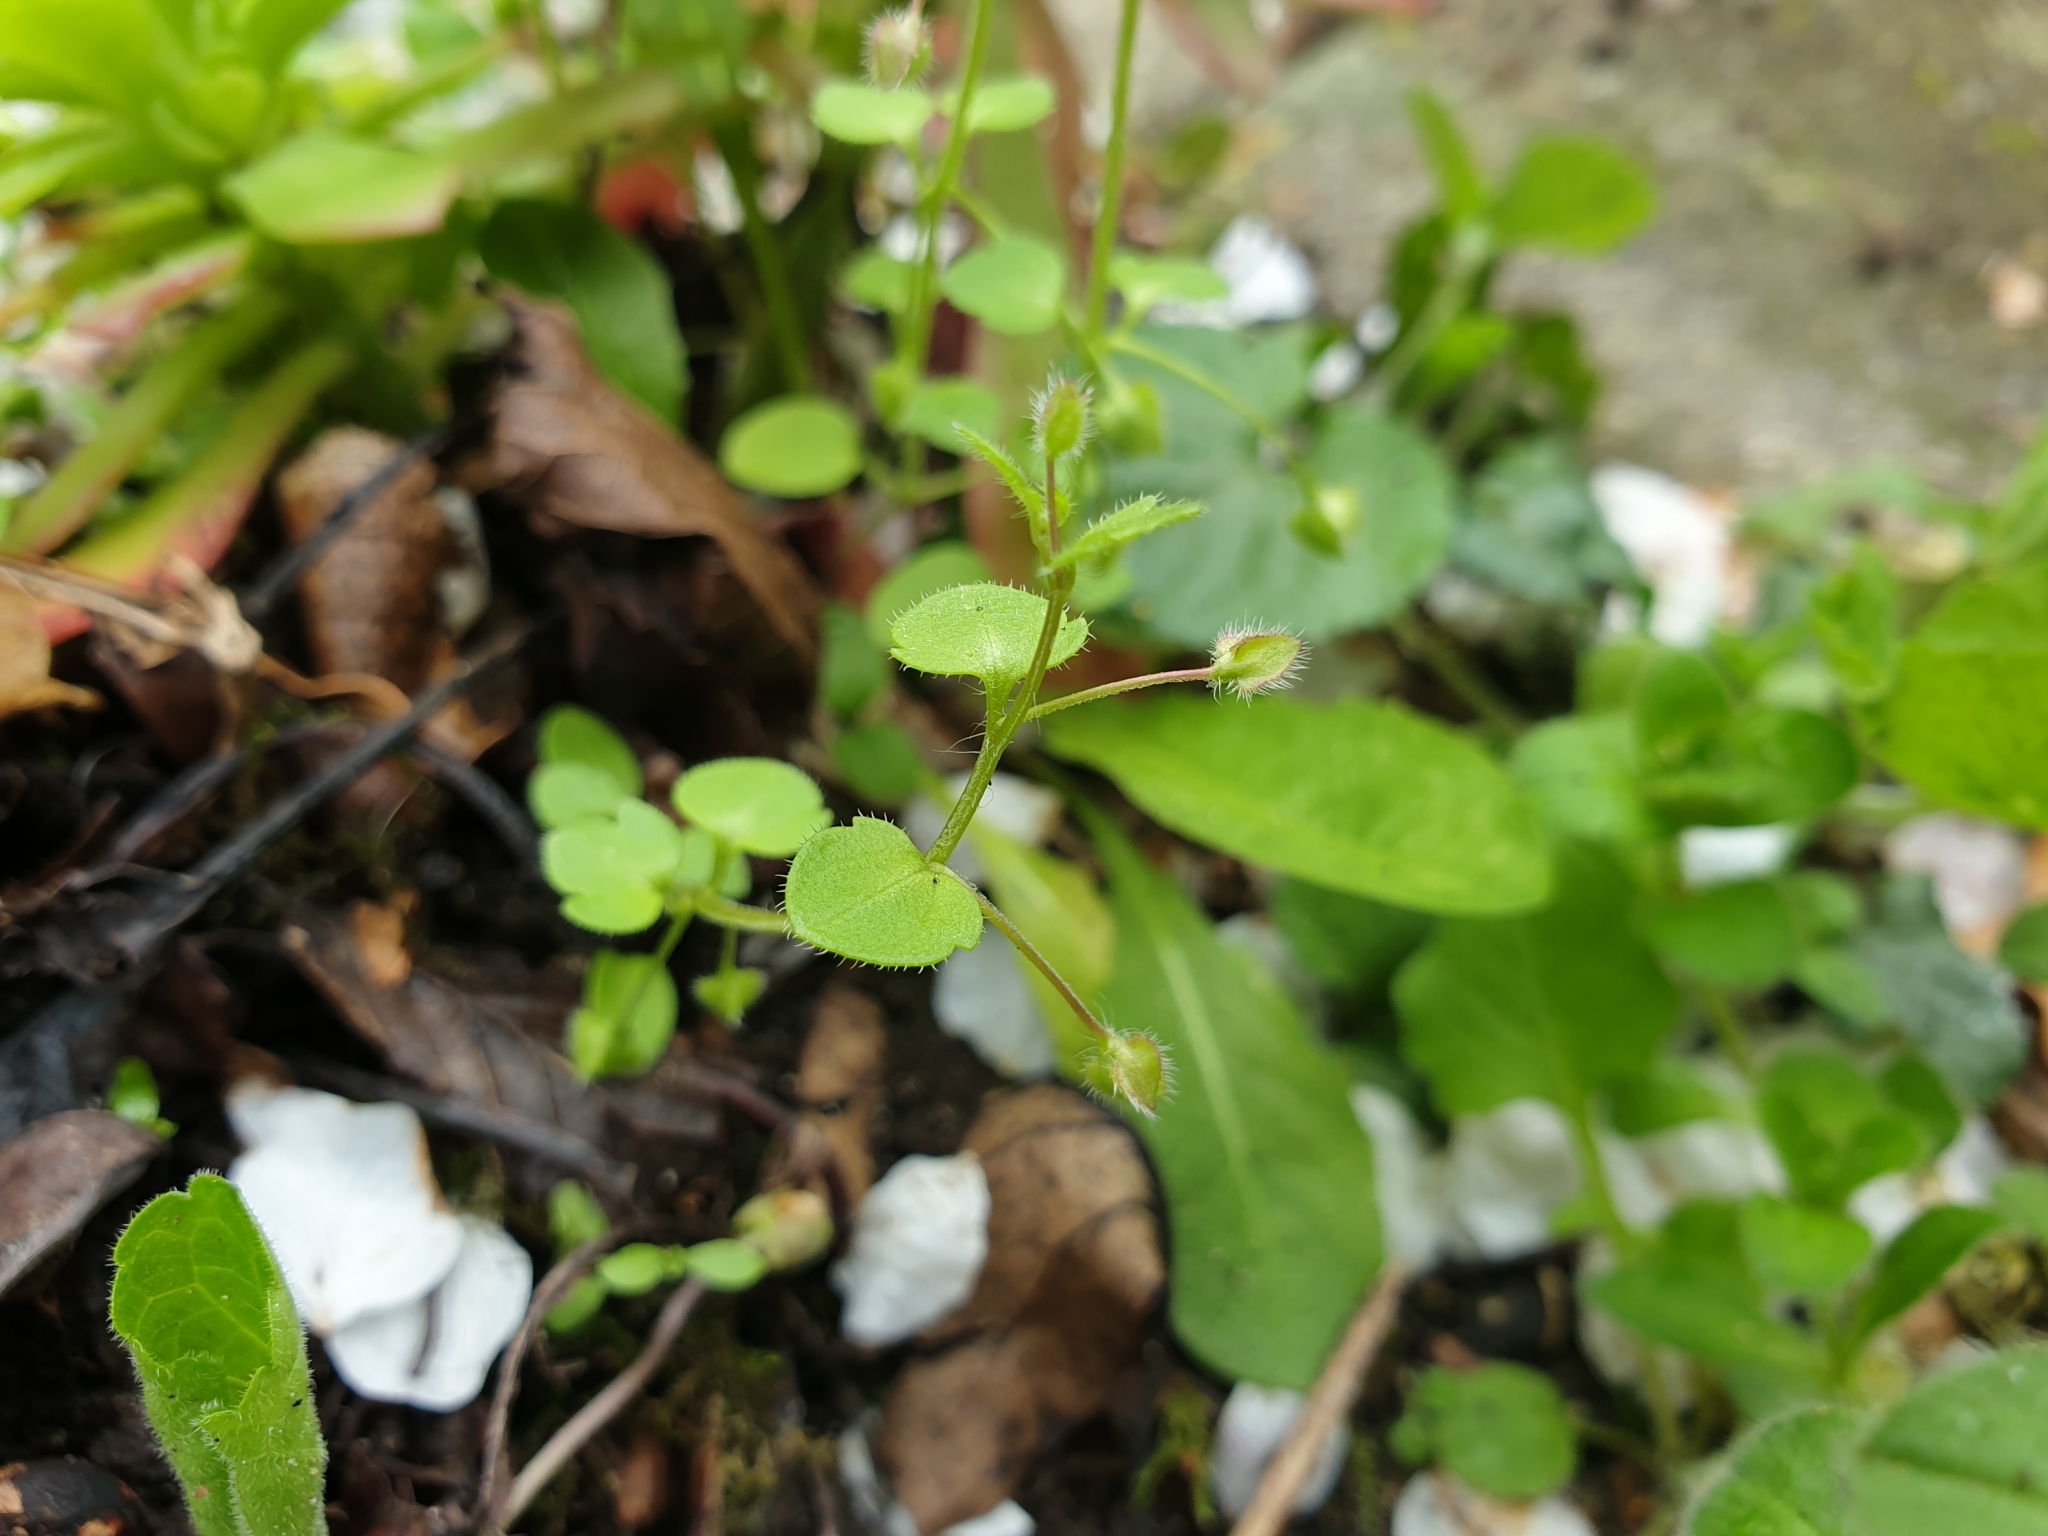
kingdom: Plantae
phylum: Tracheophyta
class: Magnoliopsida
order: Lamiales
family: Plantaginaceae
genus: Veronica
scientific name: Veronica sublobata
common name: False ivy-leaved speedwell
